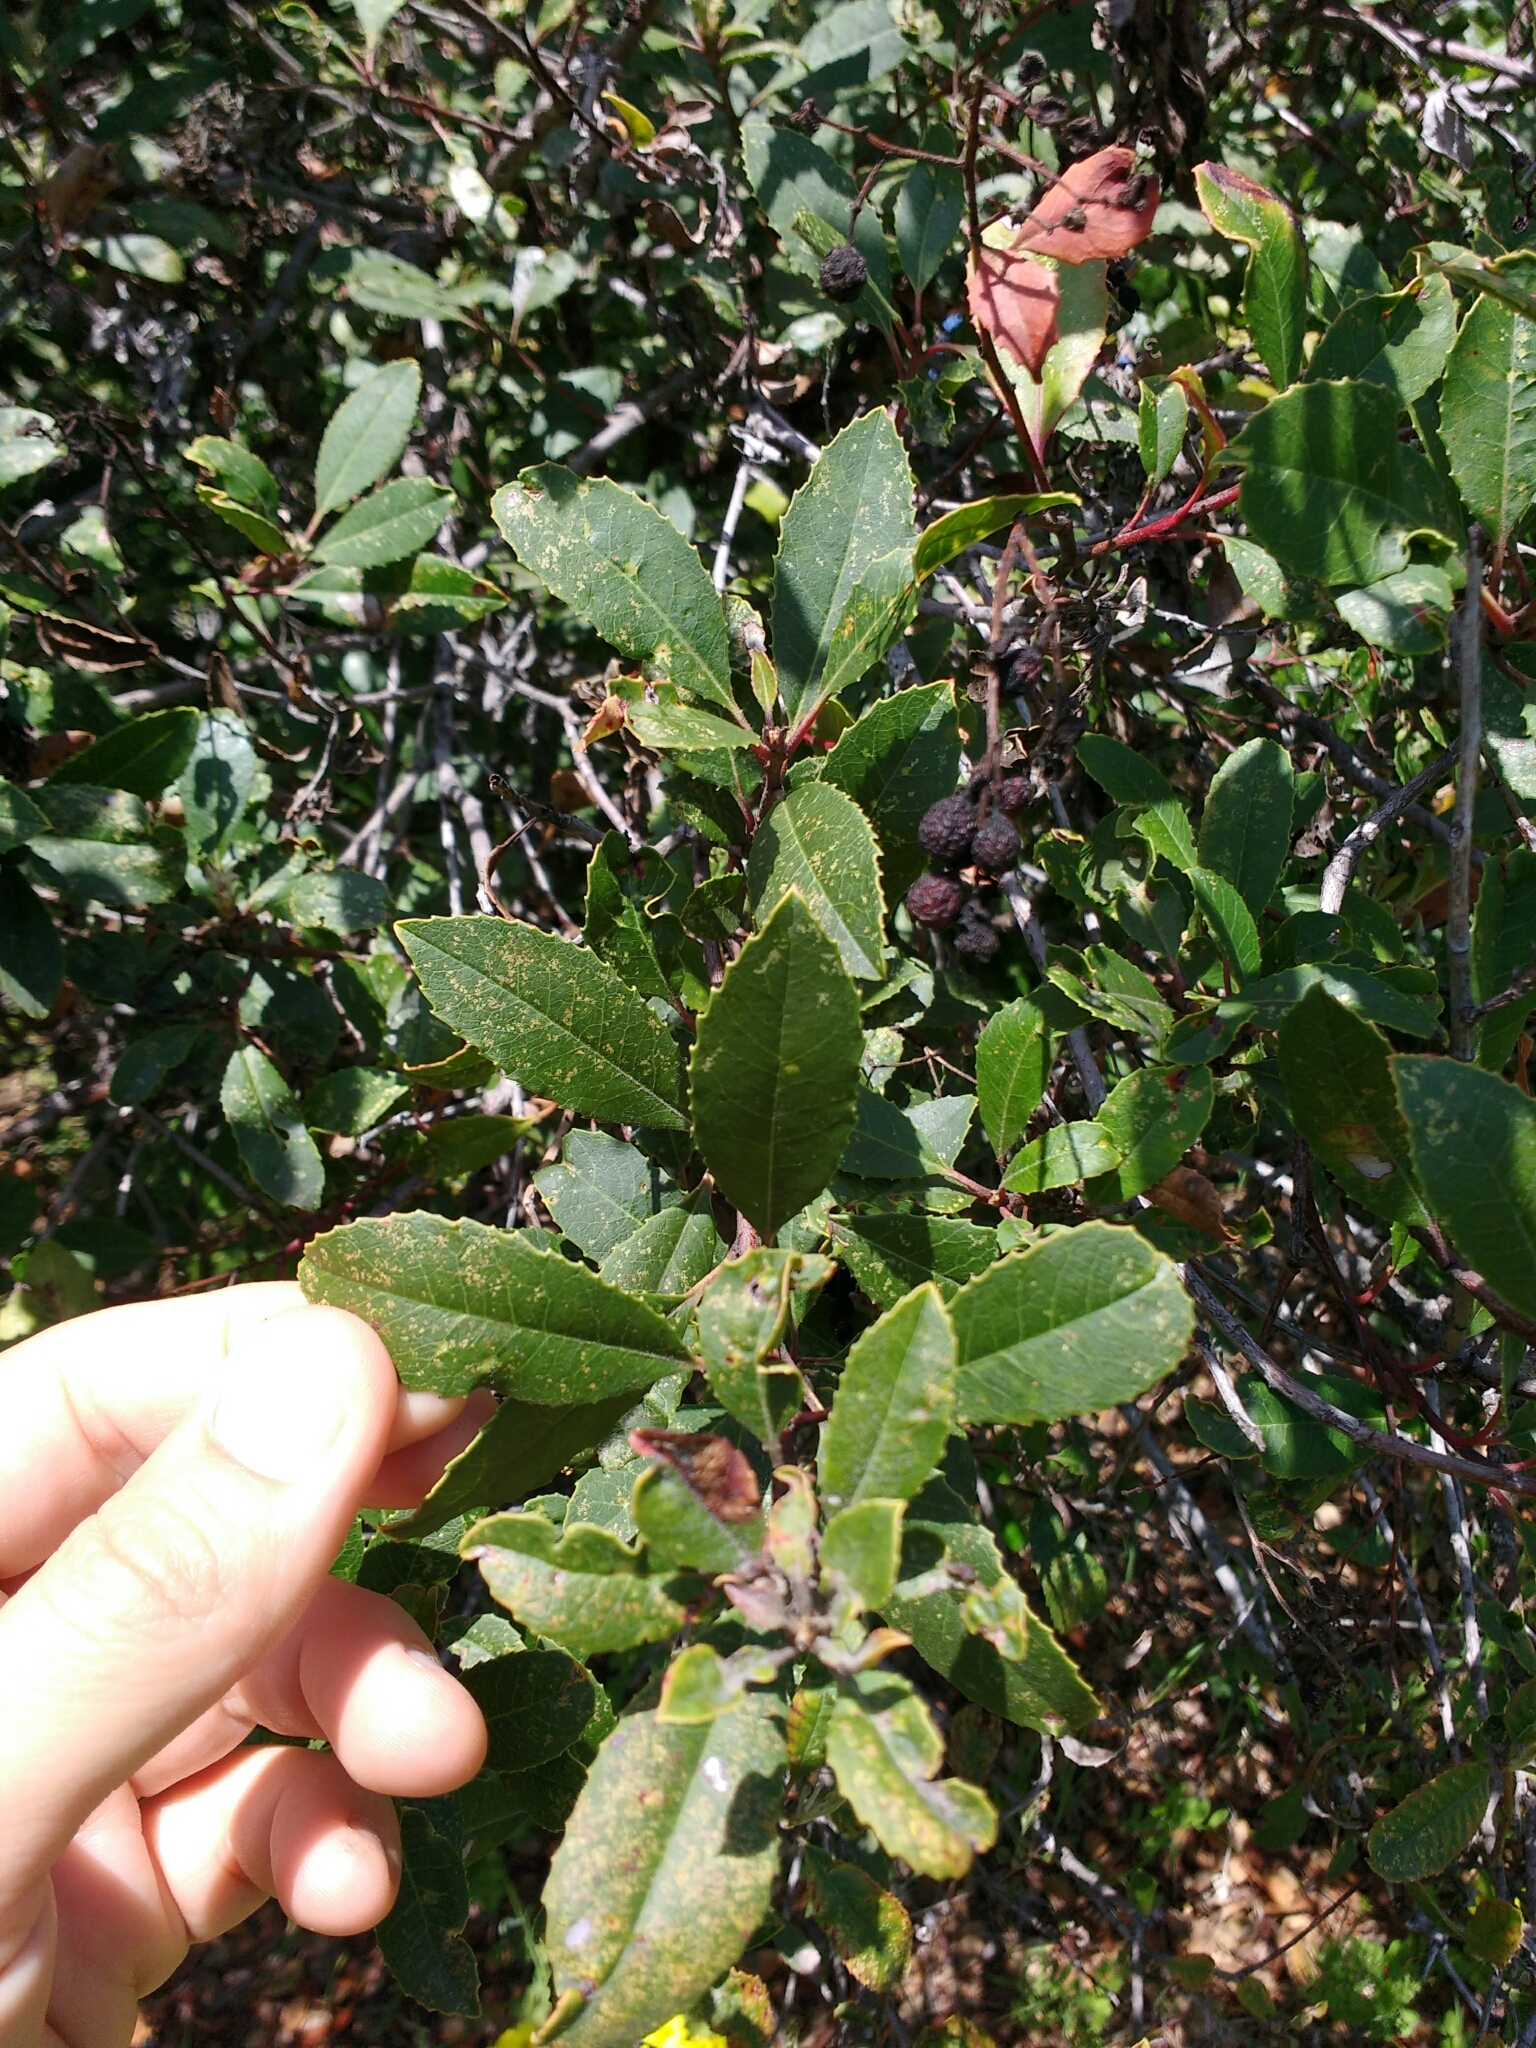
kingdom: Plantae
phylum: Tracheophyta
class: Magnoliopsida
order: Rosales
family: Rosaceae
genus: Heteromeles
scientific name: Heteromeles arbutifolia
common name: California-holly
